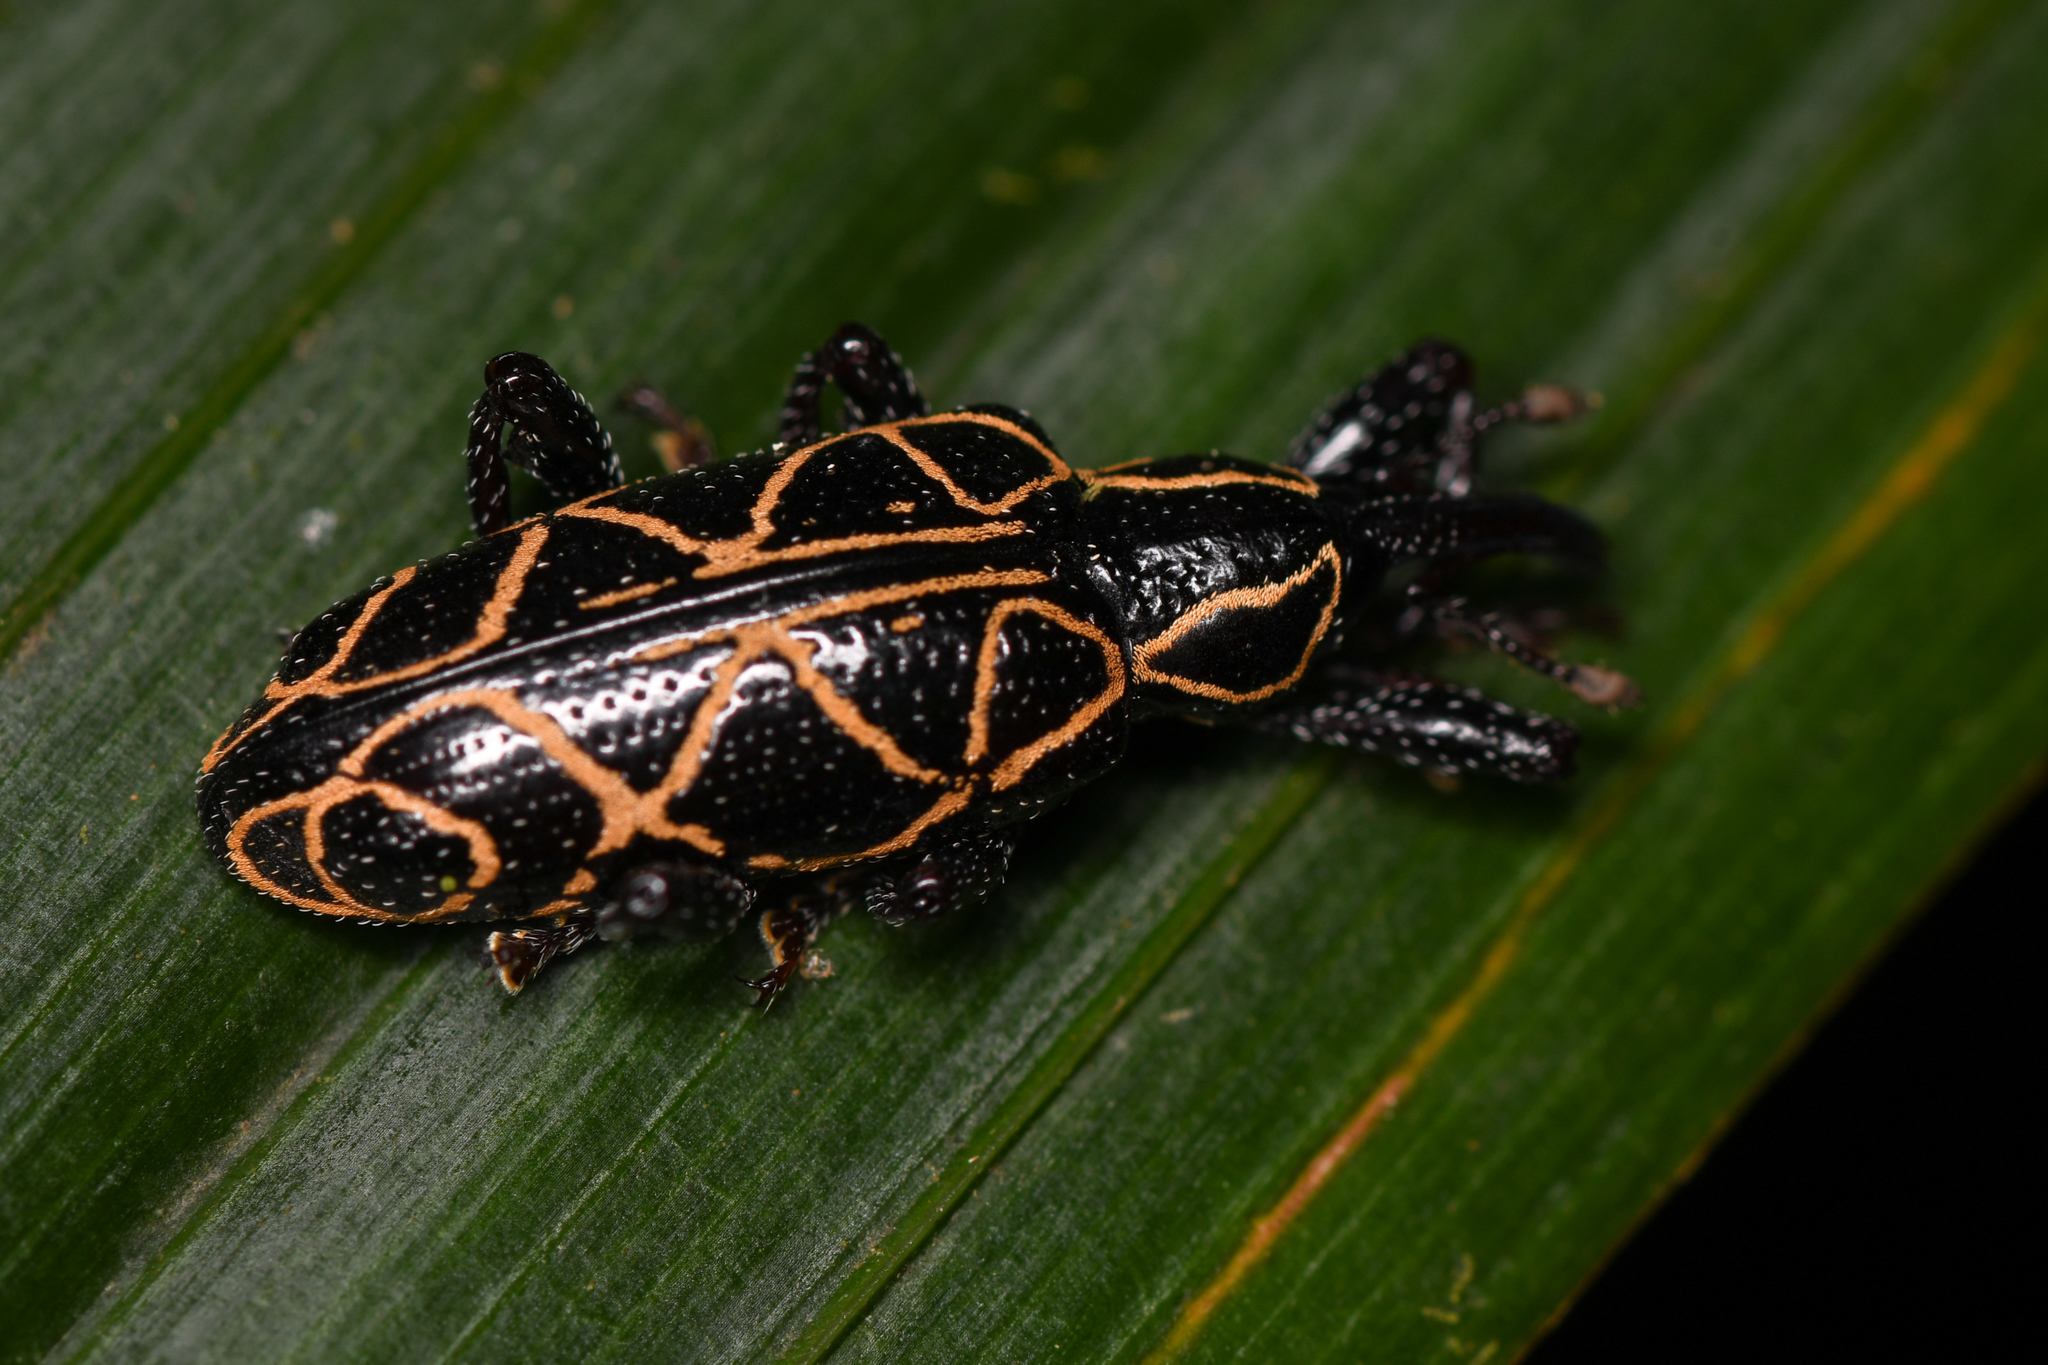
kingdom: Animalia
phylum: Arthropoda
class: Insecta
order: Coleoptera
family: Curculionidae
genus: Heilipus
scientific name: Heilipus
